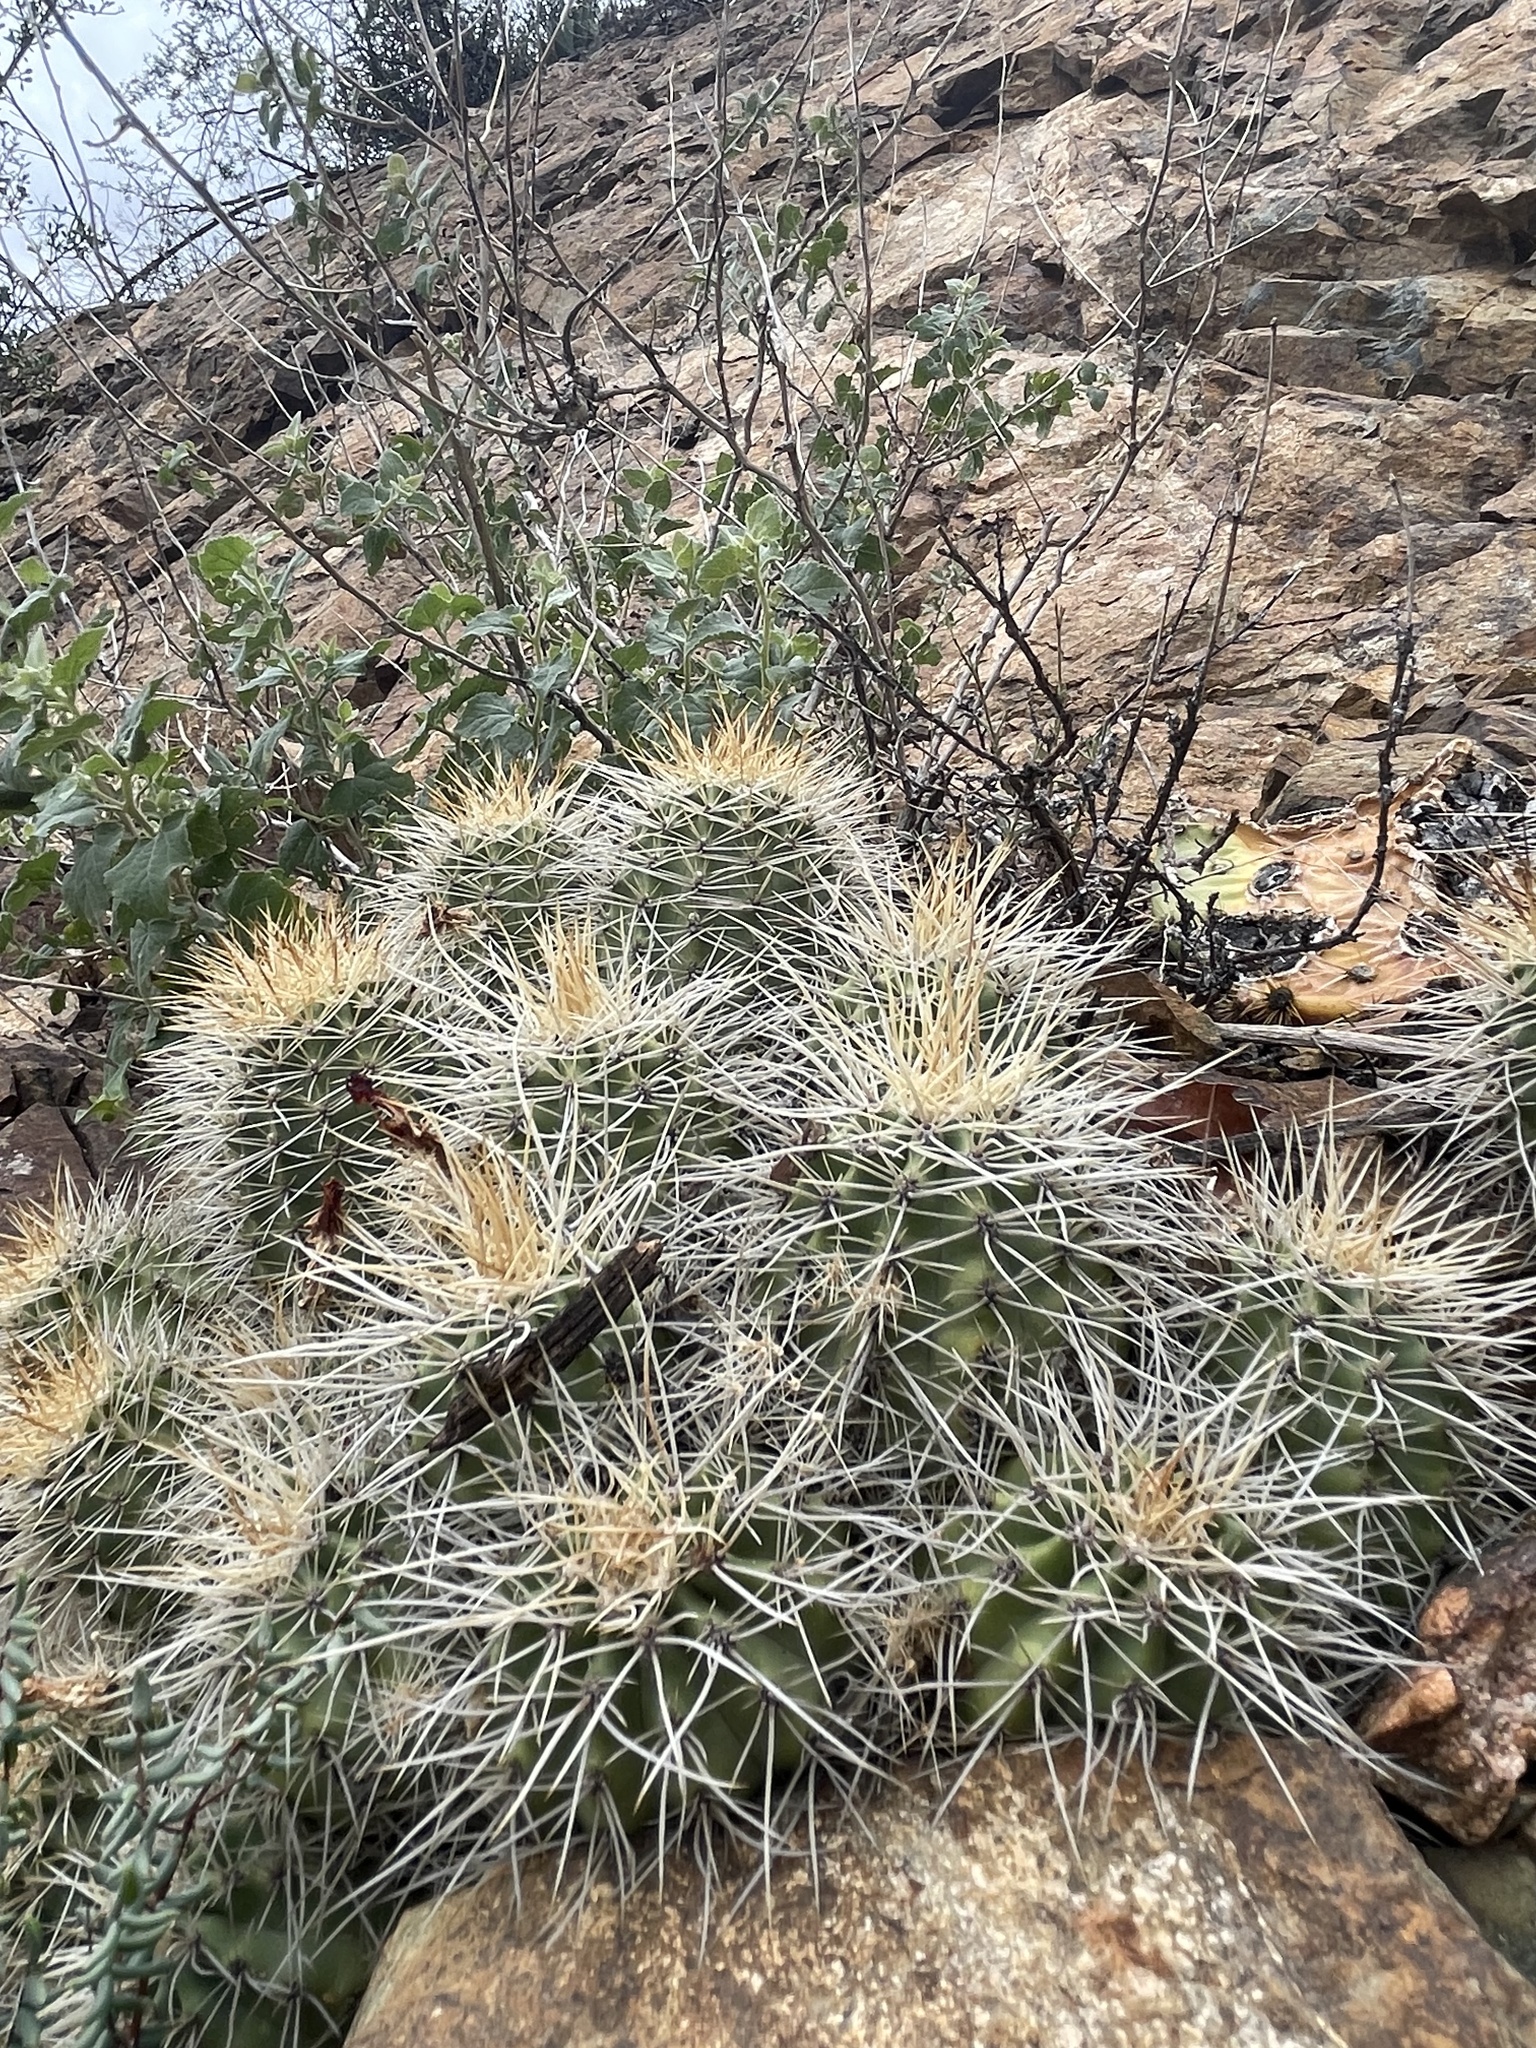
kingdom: Plantae
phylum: Tracheophyta
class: Magnoliopsida
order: Caryophyllales
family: Cactaceae
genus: Echinocereus
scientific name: Echinocereus yavapaiensis
